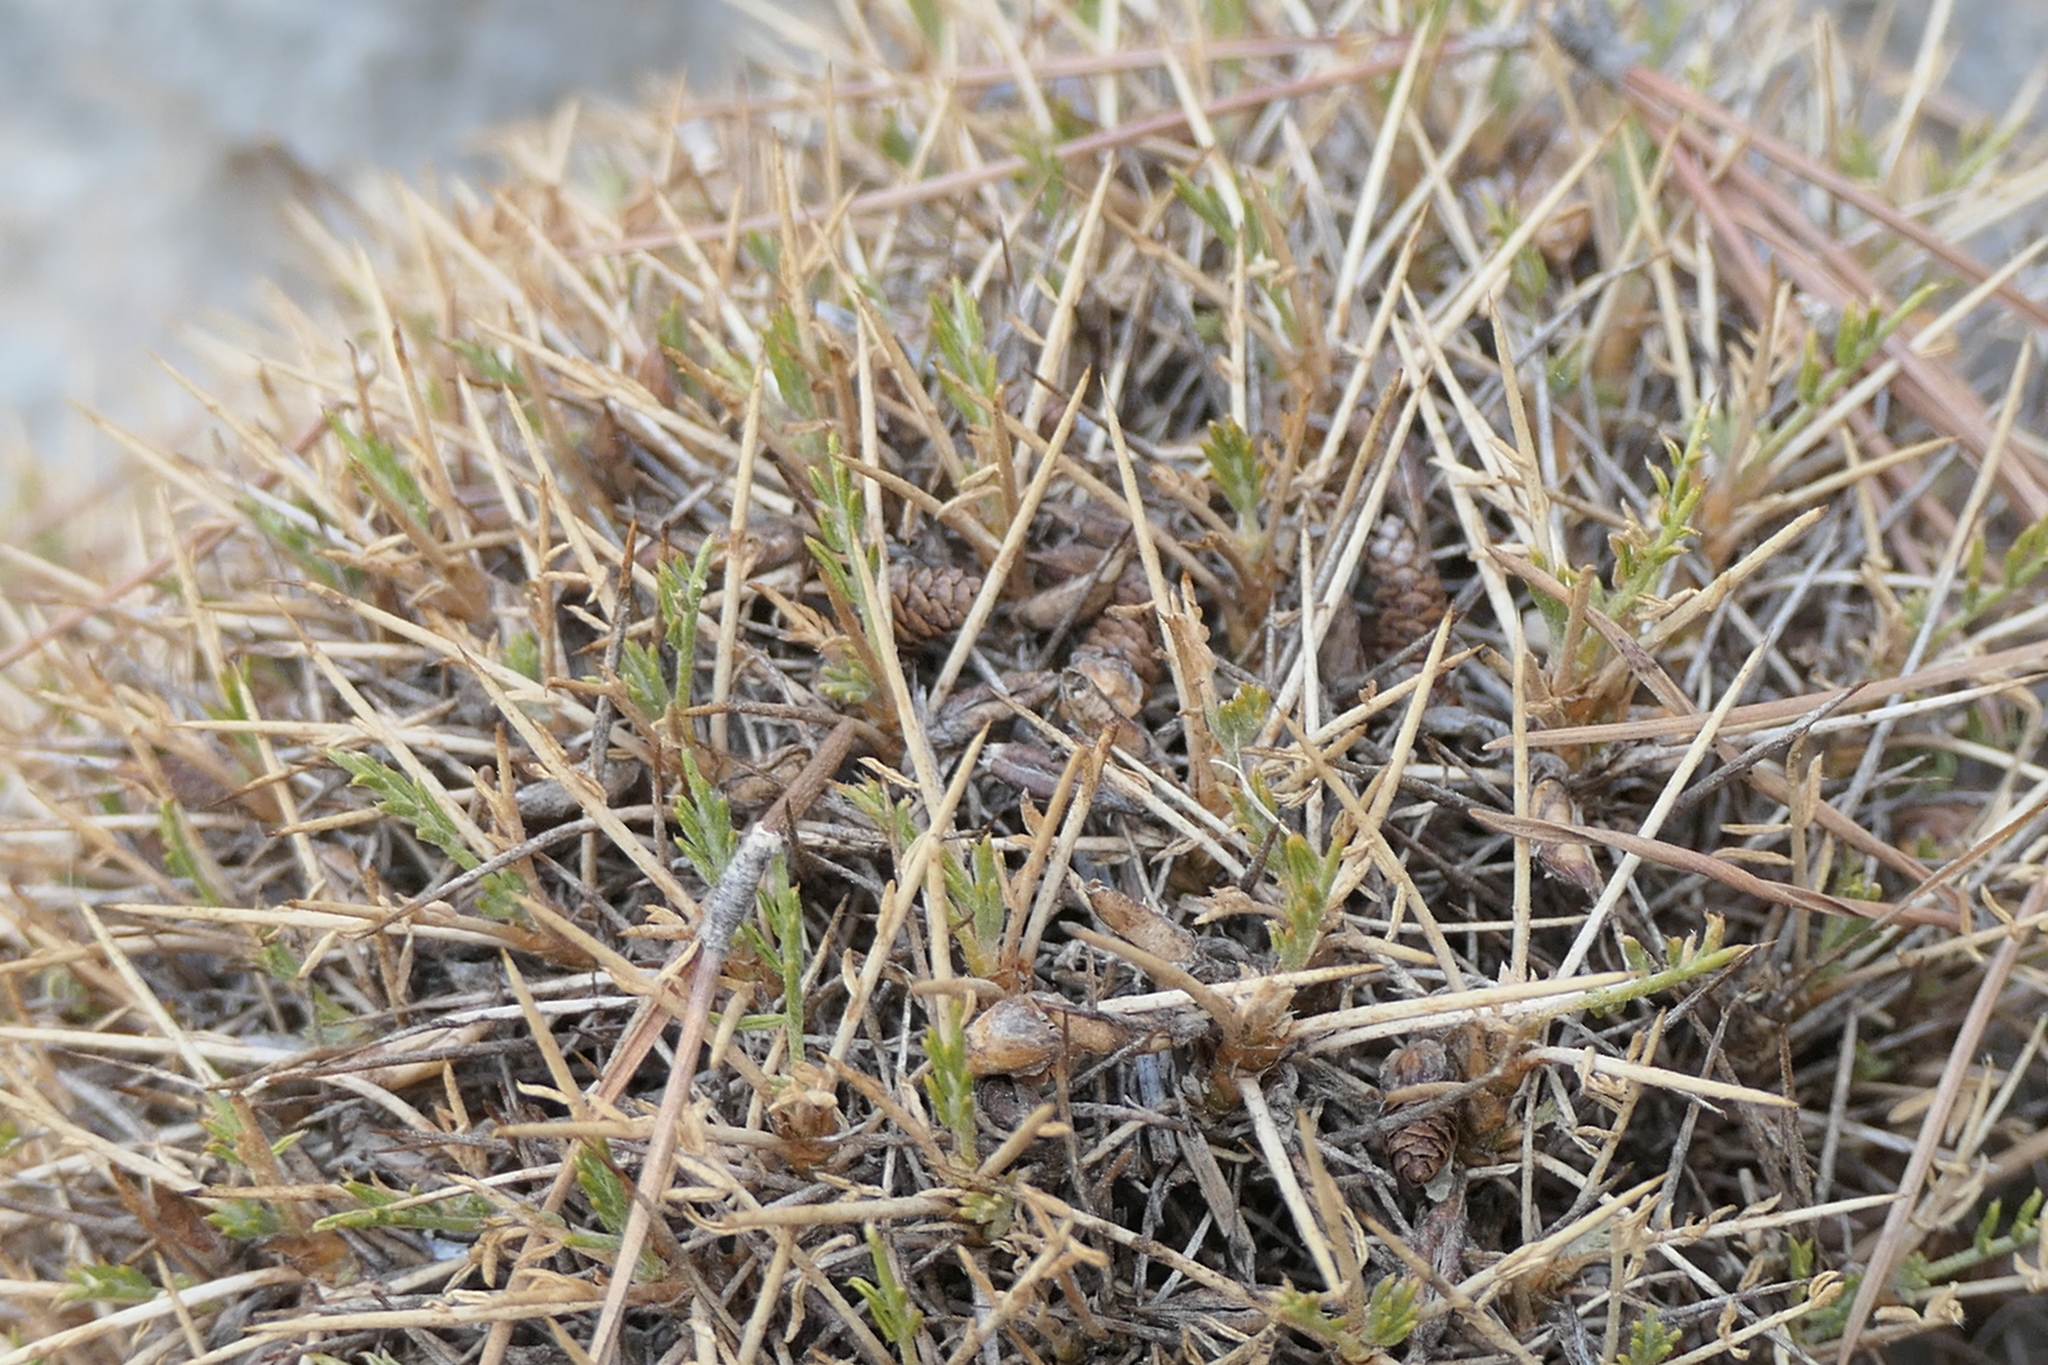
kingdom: Plantae
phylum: Tracheophyta
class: Magnoliopsida
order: Fabales
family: Fabaceae
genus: Astragalus
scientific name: Astragalus balearicus
